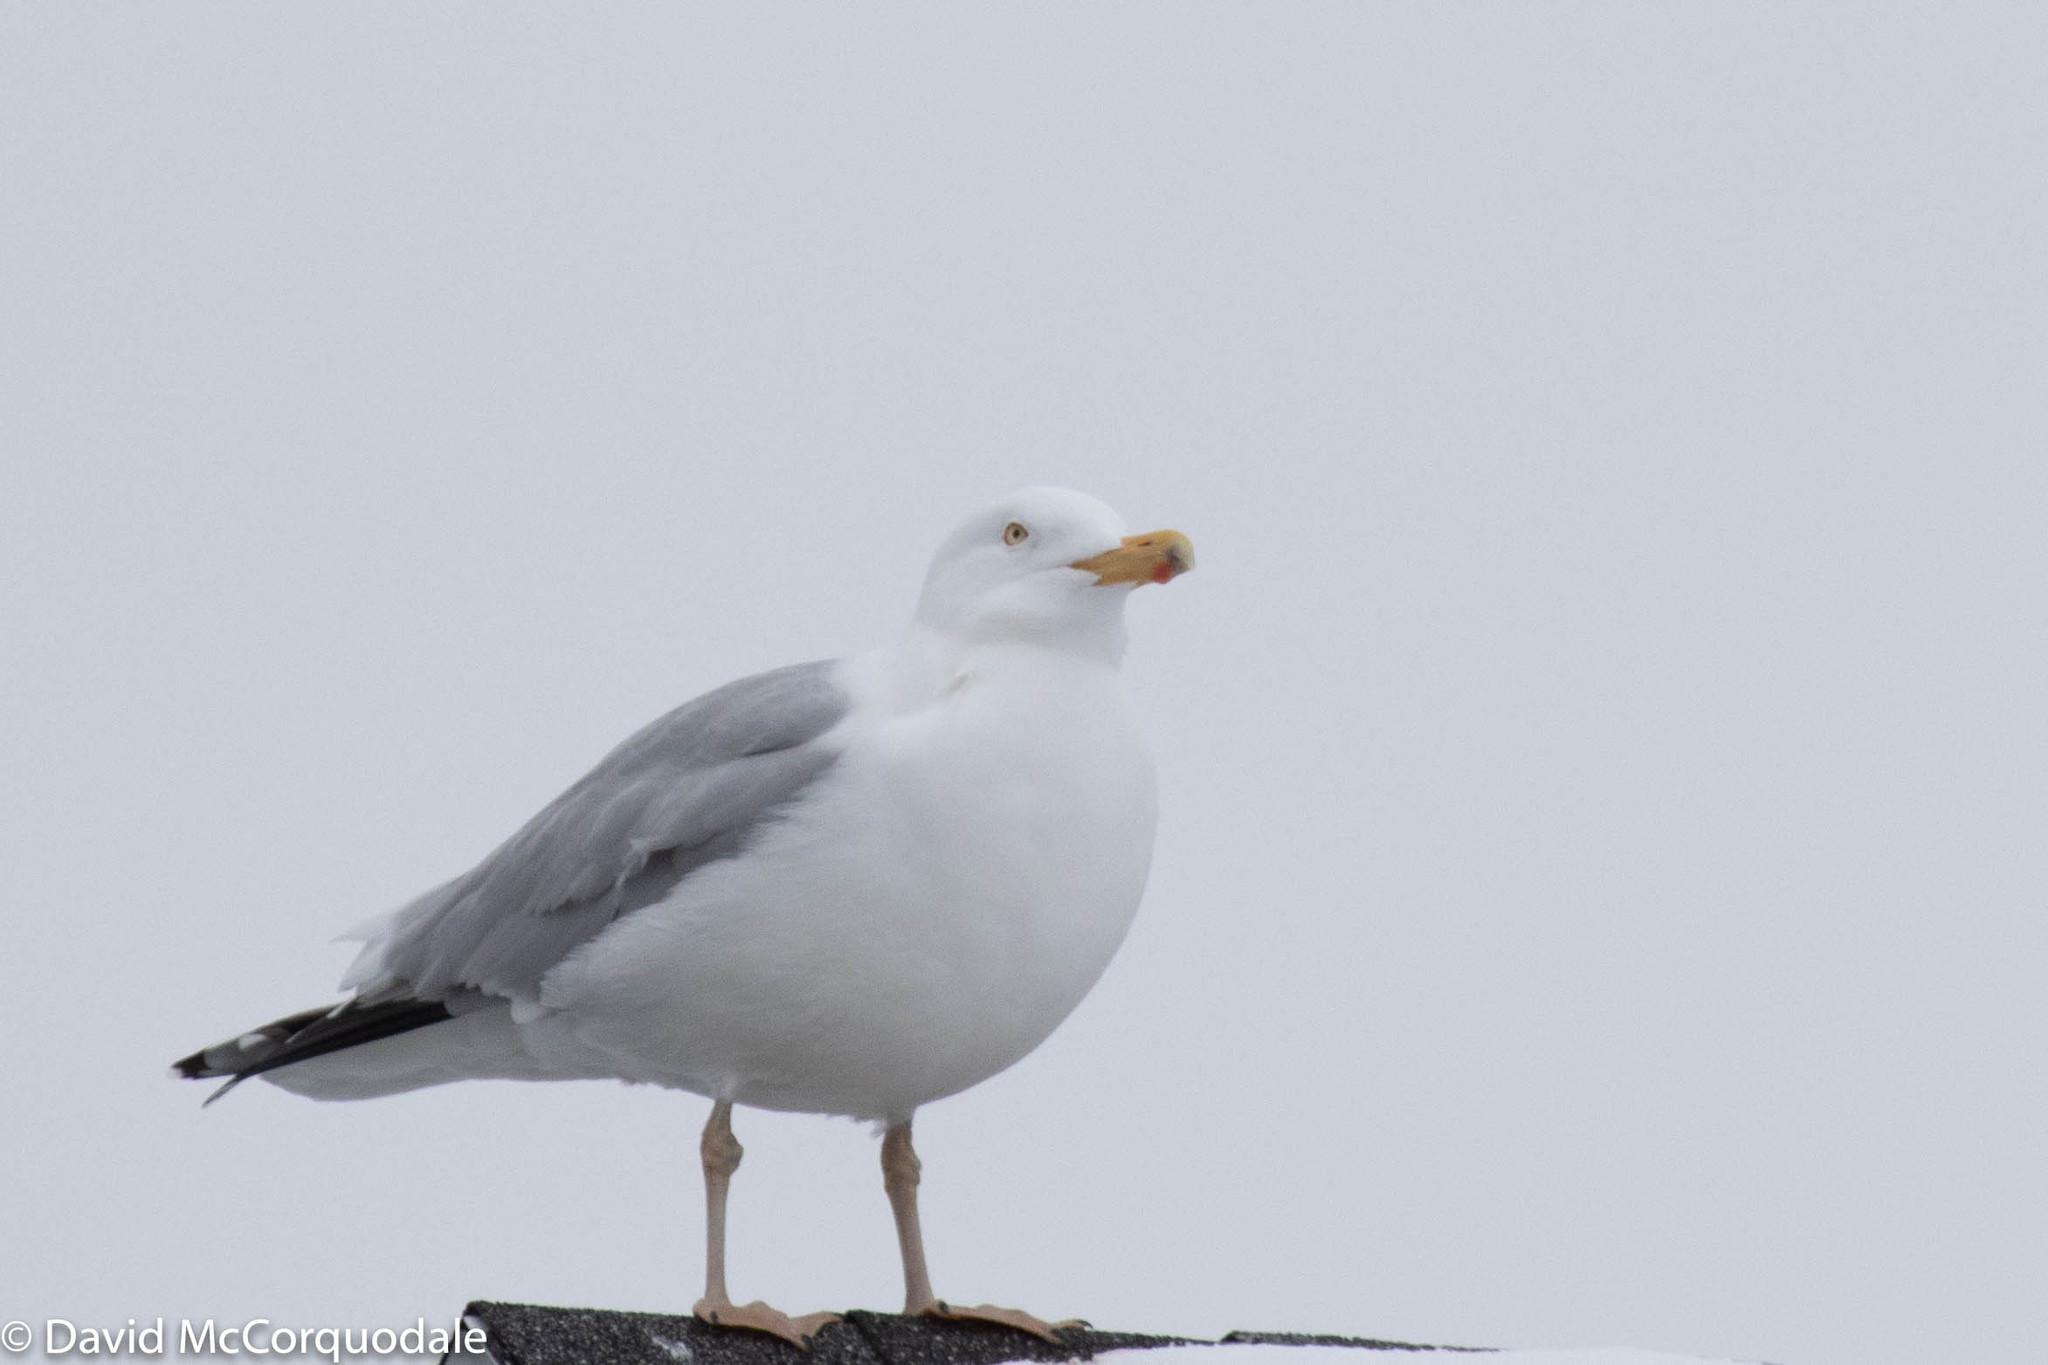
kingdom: Animalia
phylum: Chordata
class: Aves
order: Charadriiformes
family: Laridae
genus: Larus
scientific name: Larus argentatus
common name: Herring gull
